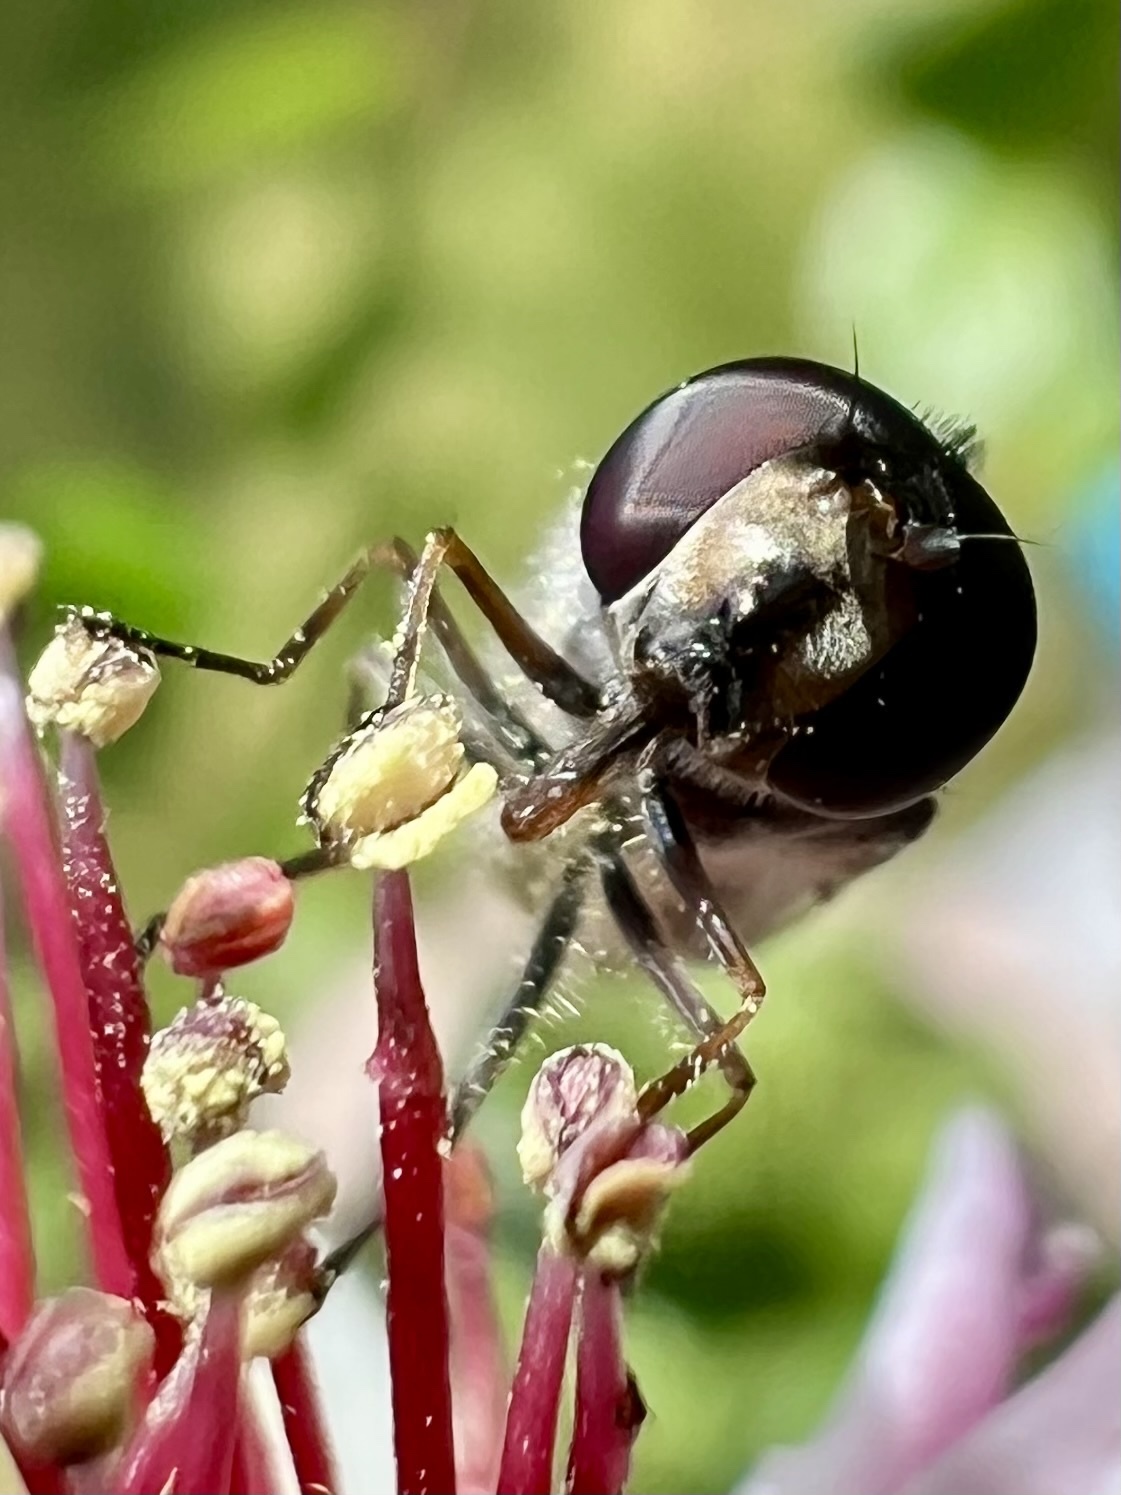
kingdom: Animalia
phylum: Arthropoda
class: Insecta
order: Diptera
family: Syrphidae
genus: Melangyna
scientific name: Melangyna novaezelandiae
